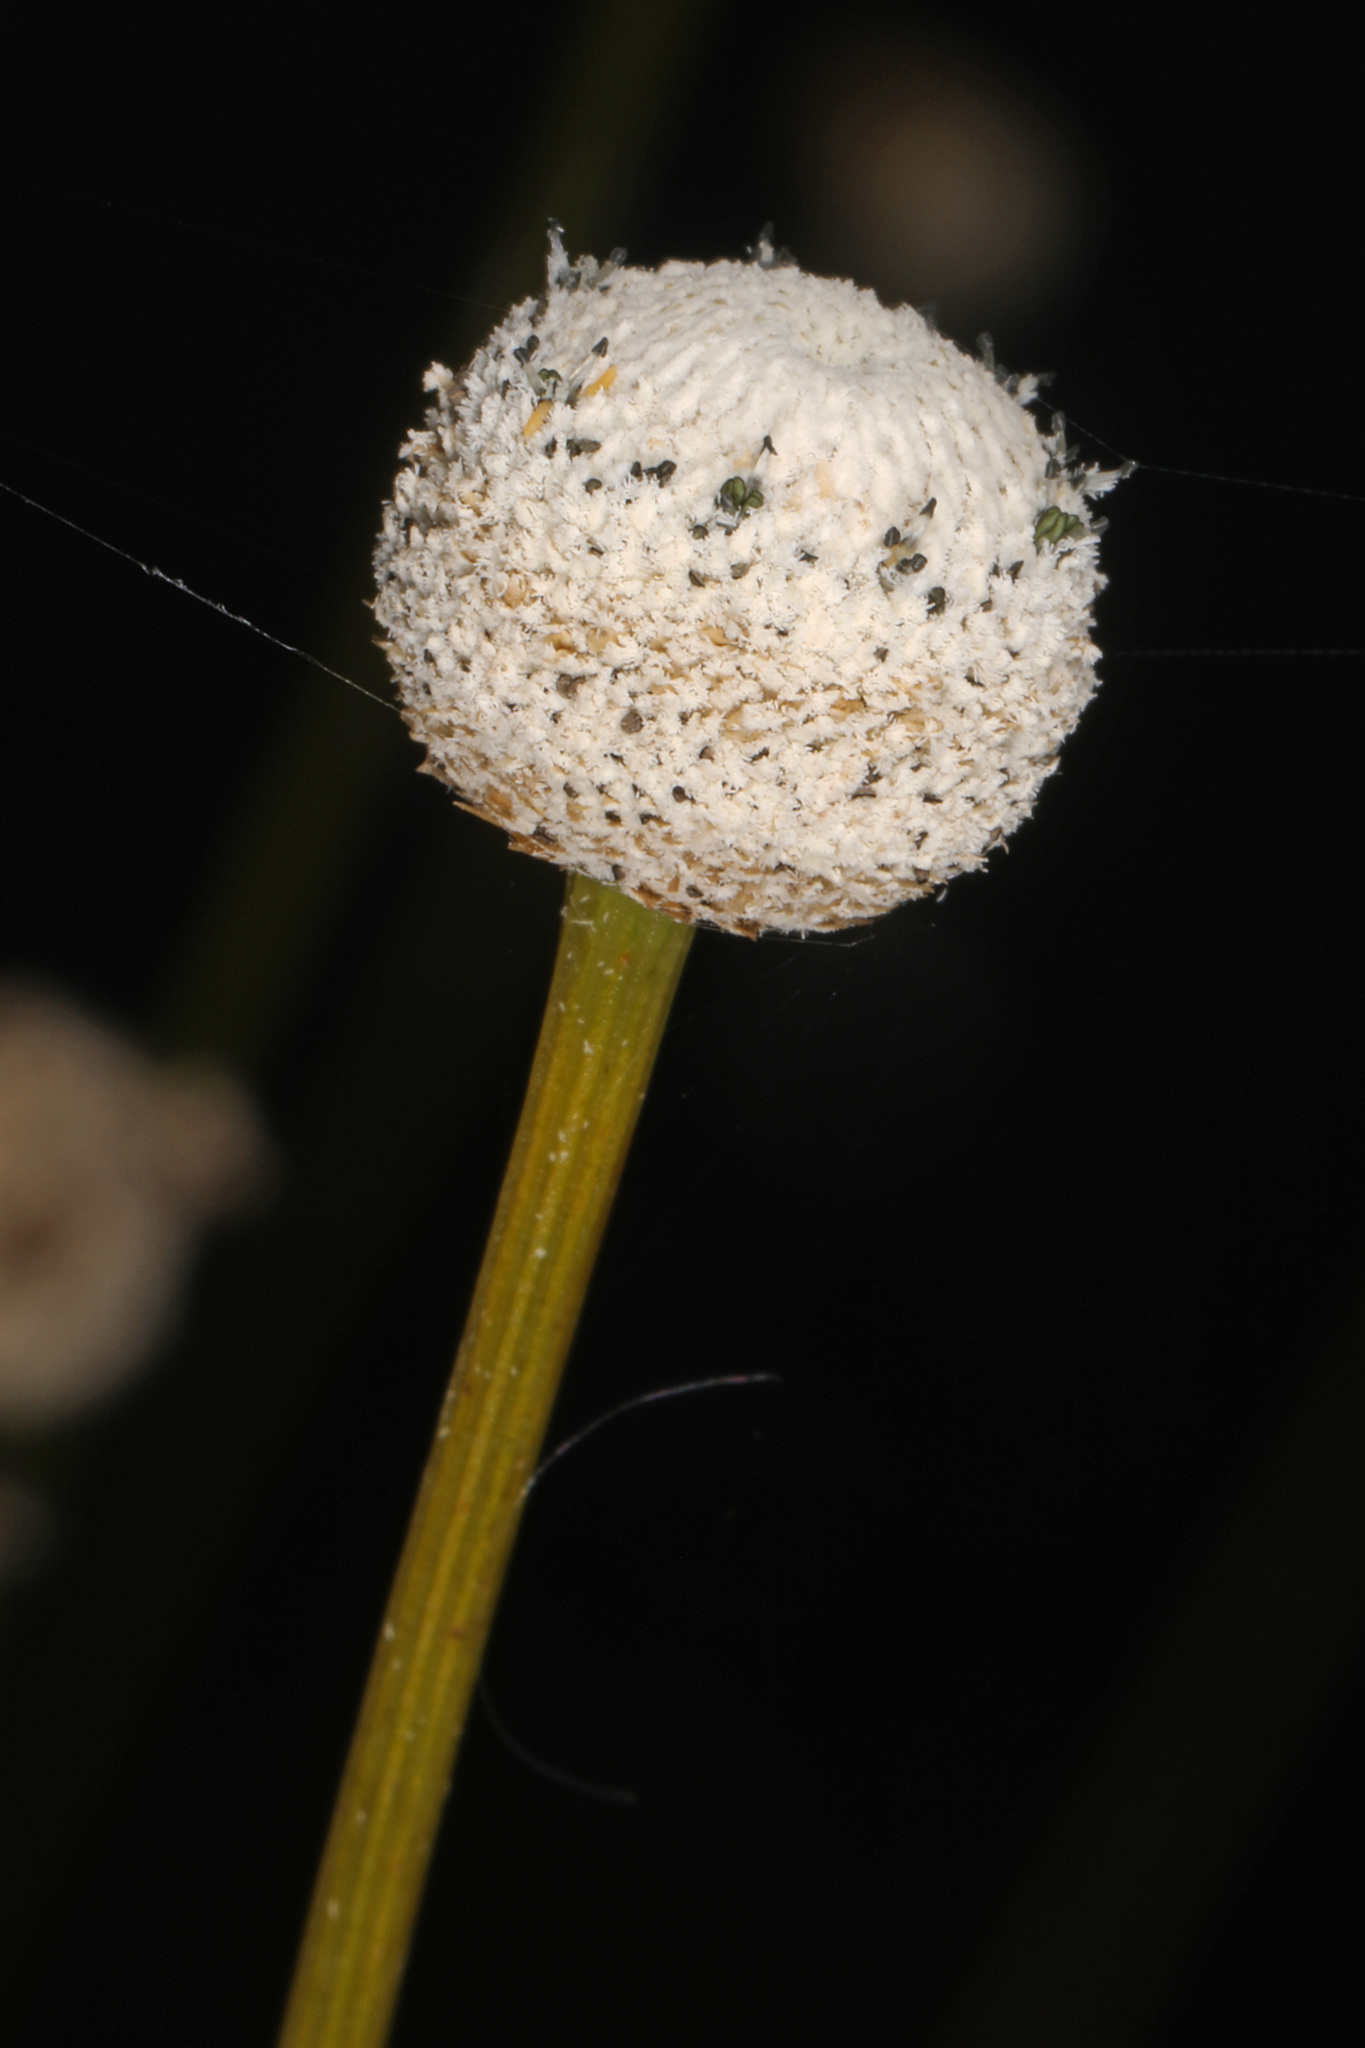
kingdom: Plantae
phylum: Tracheophyta
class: Liliopsida
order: Poales
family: Eriocaulaceae
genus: Eriocaulon
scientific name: Eriocaulon decangulare
